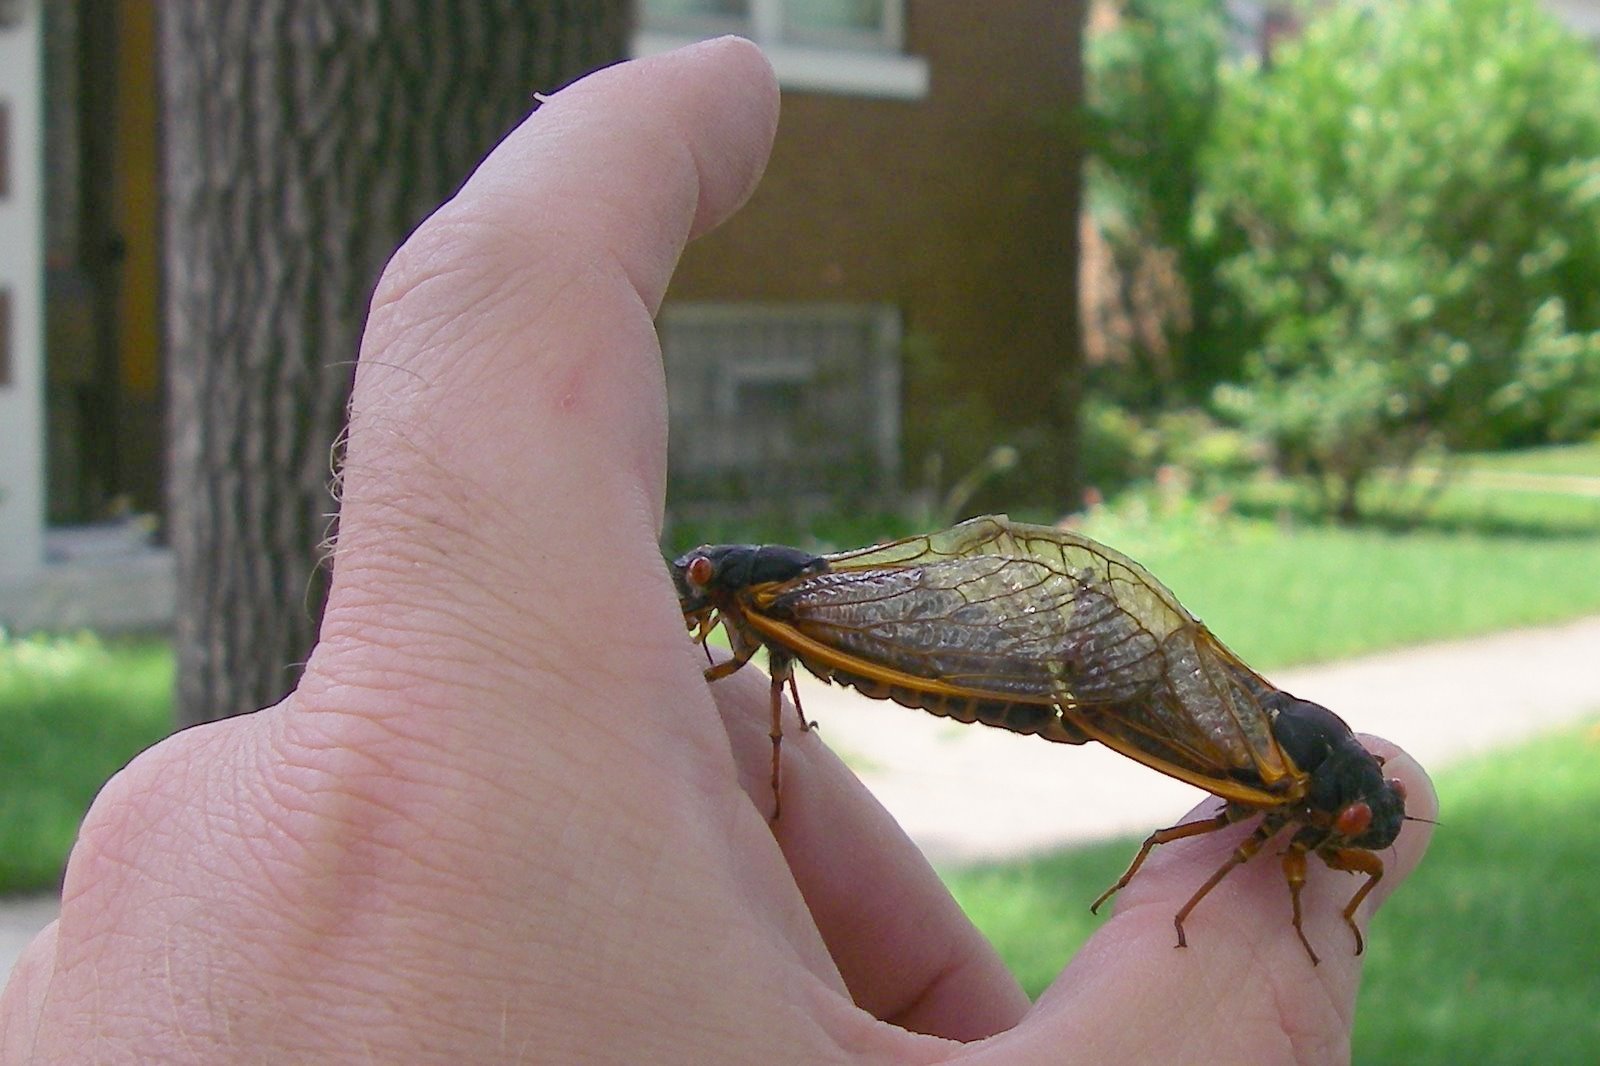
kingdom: Animalia
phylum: Arthropoda
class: Insecta
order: Hemiptera
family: Cicadidae
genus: Magicicada
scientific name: Magicicada septendecim
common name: Periodical cicada
